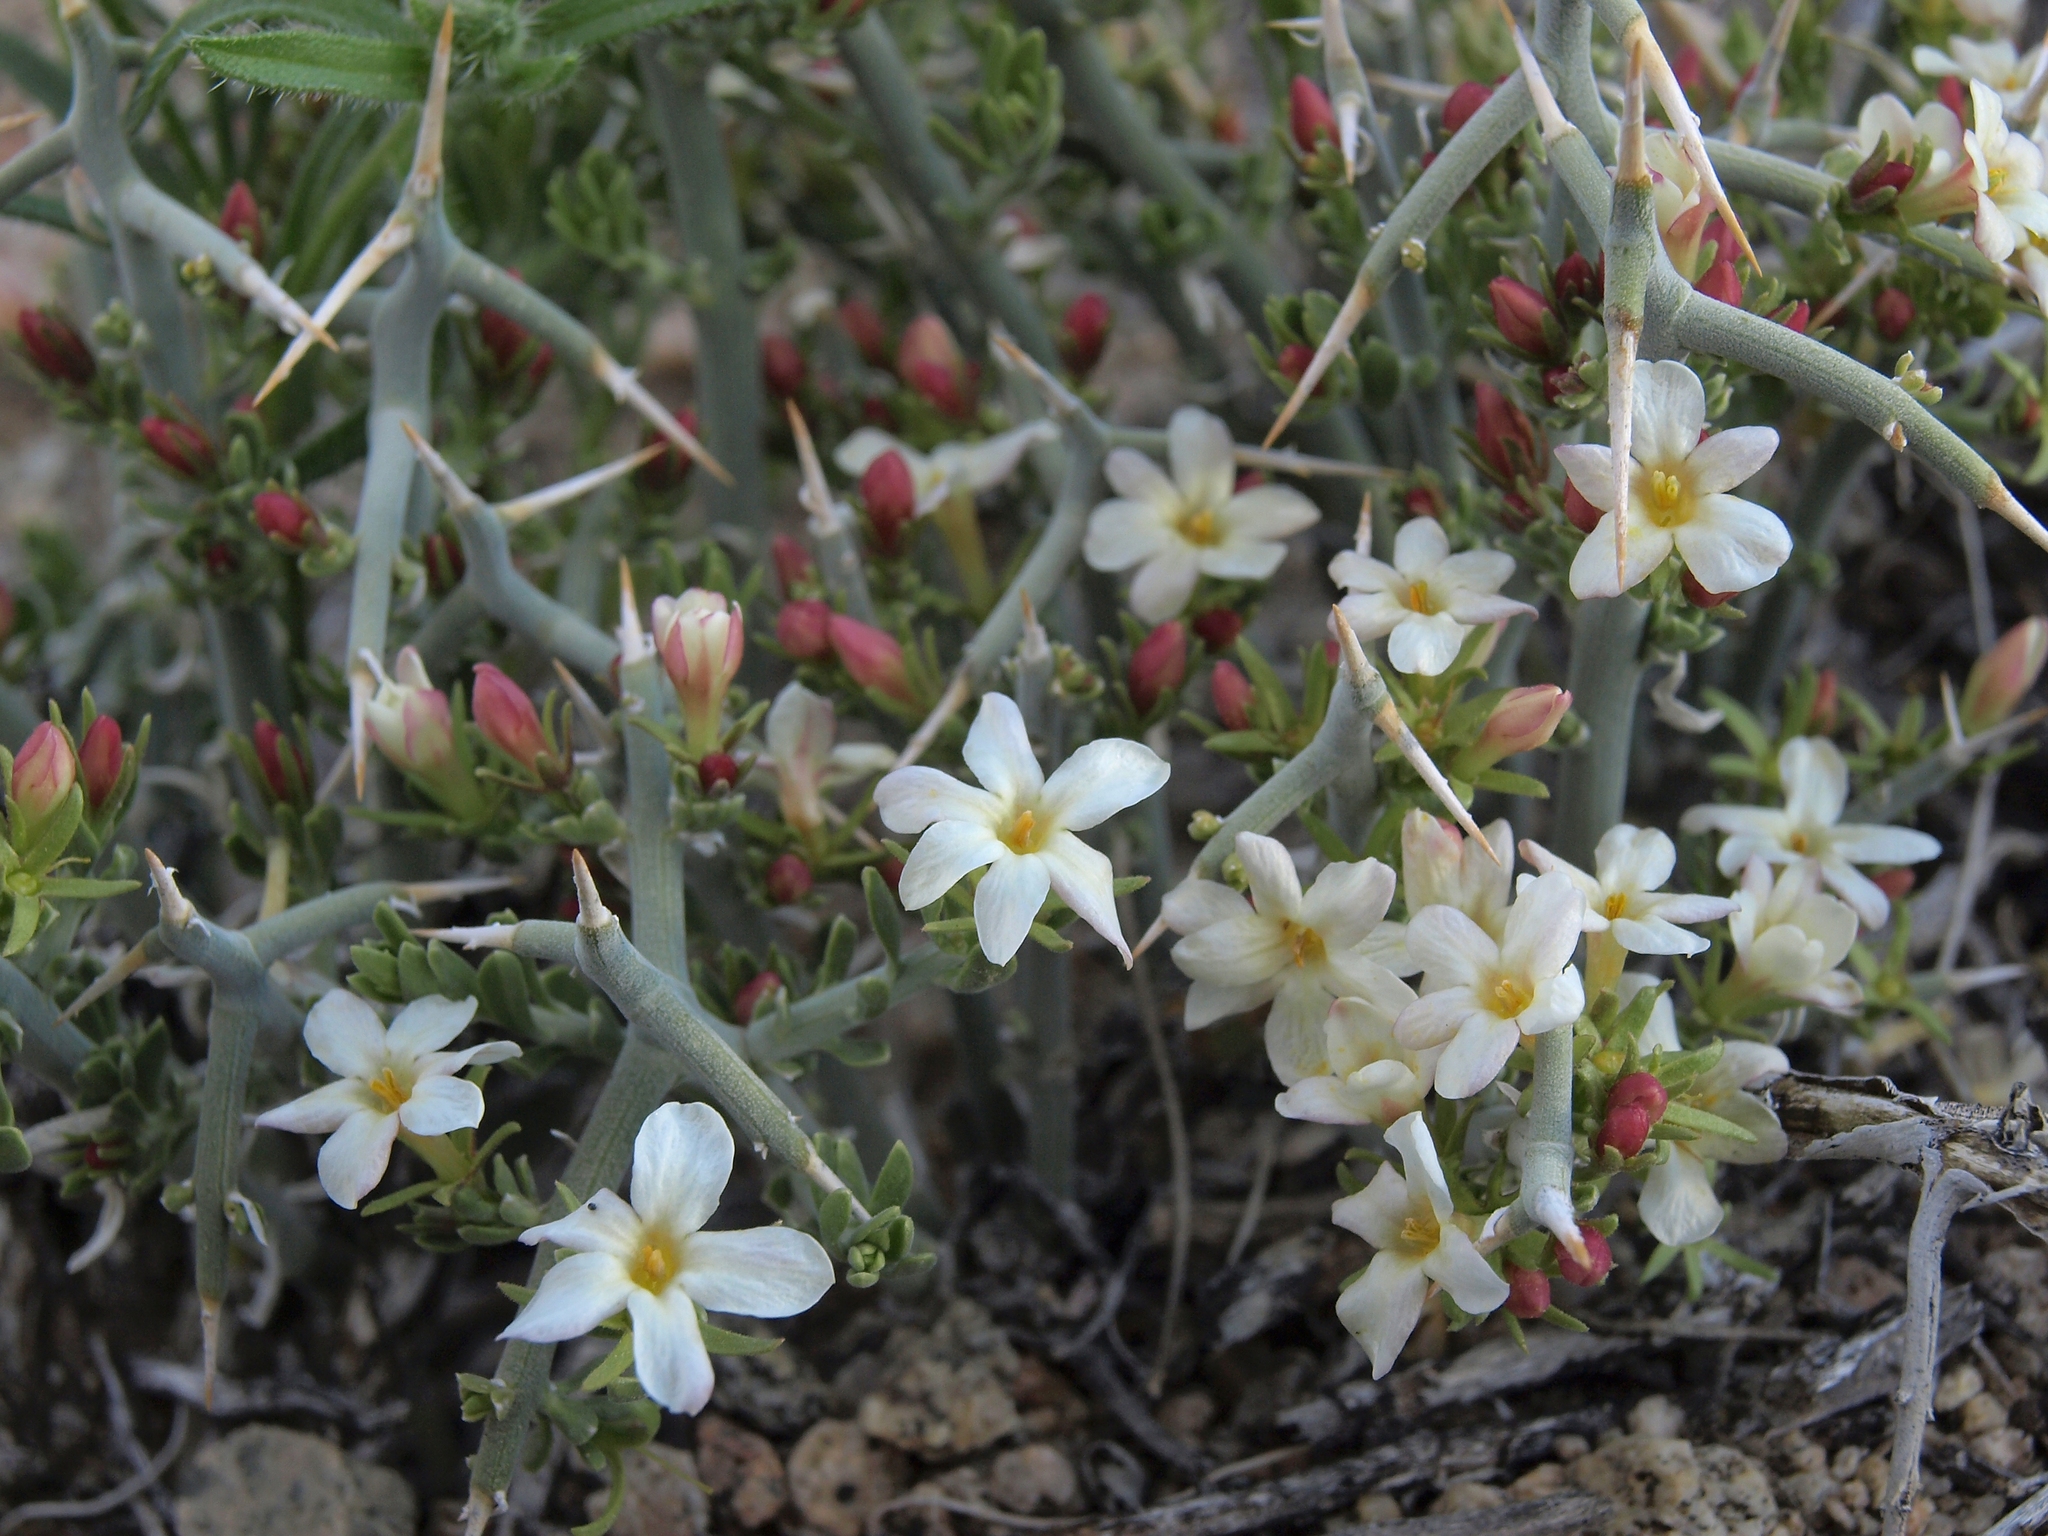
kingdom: Plantae
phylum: Tracheophyta
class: Magnoliopsida
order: Lamiales
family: Oleaceae
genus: Menodora
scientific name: Menodora spinescens
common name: Spiny menodora
